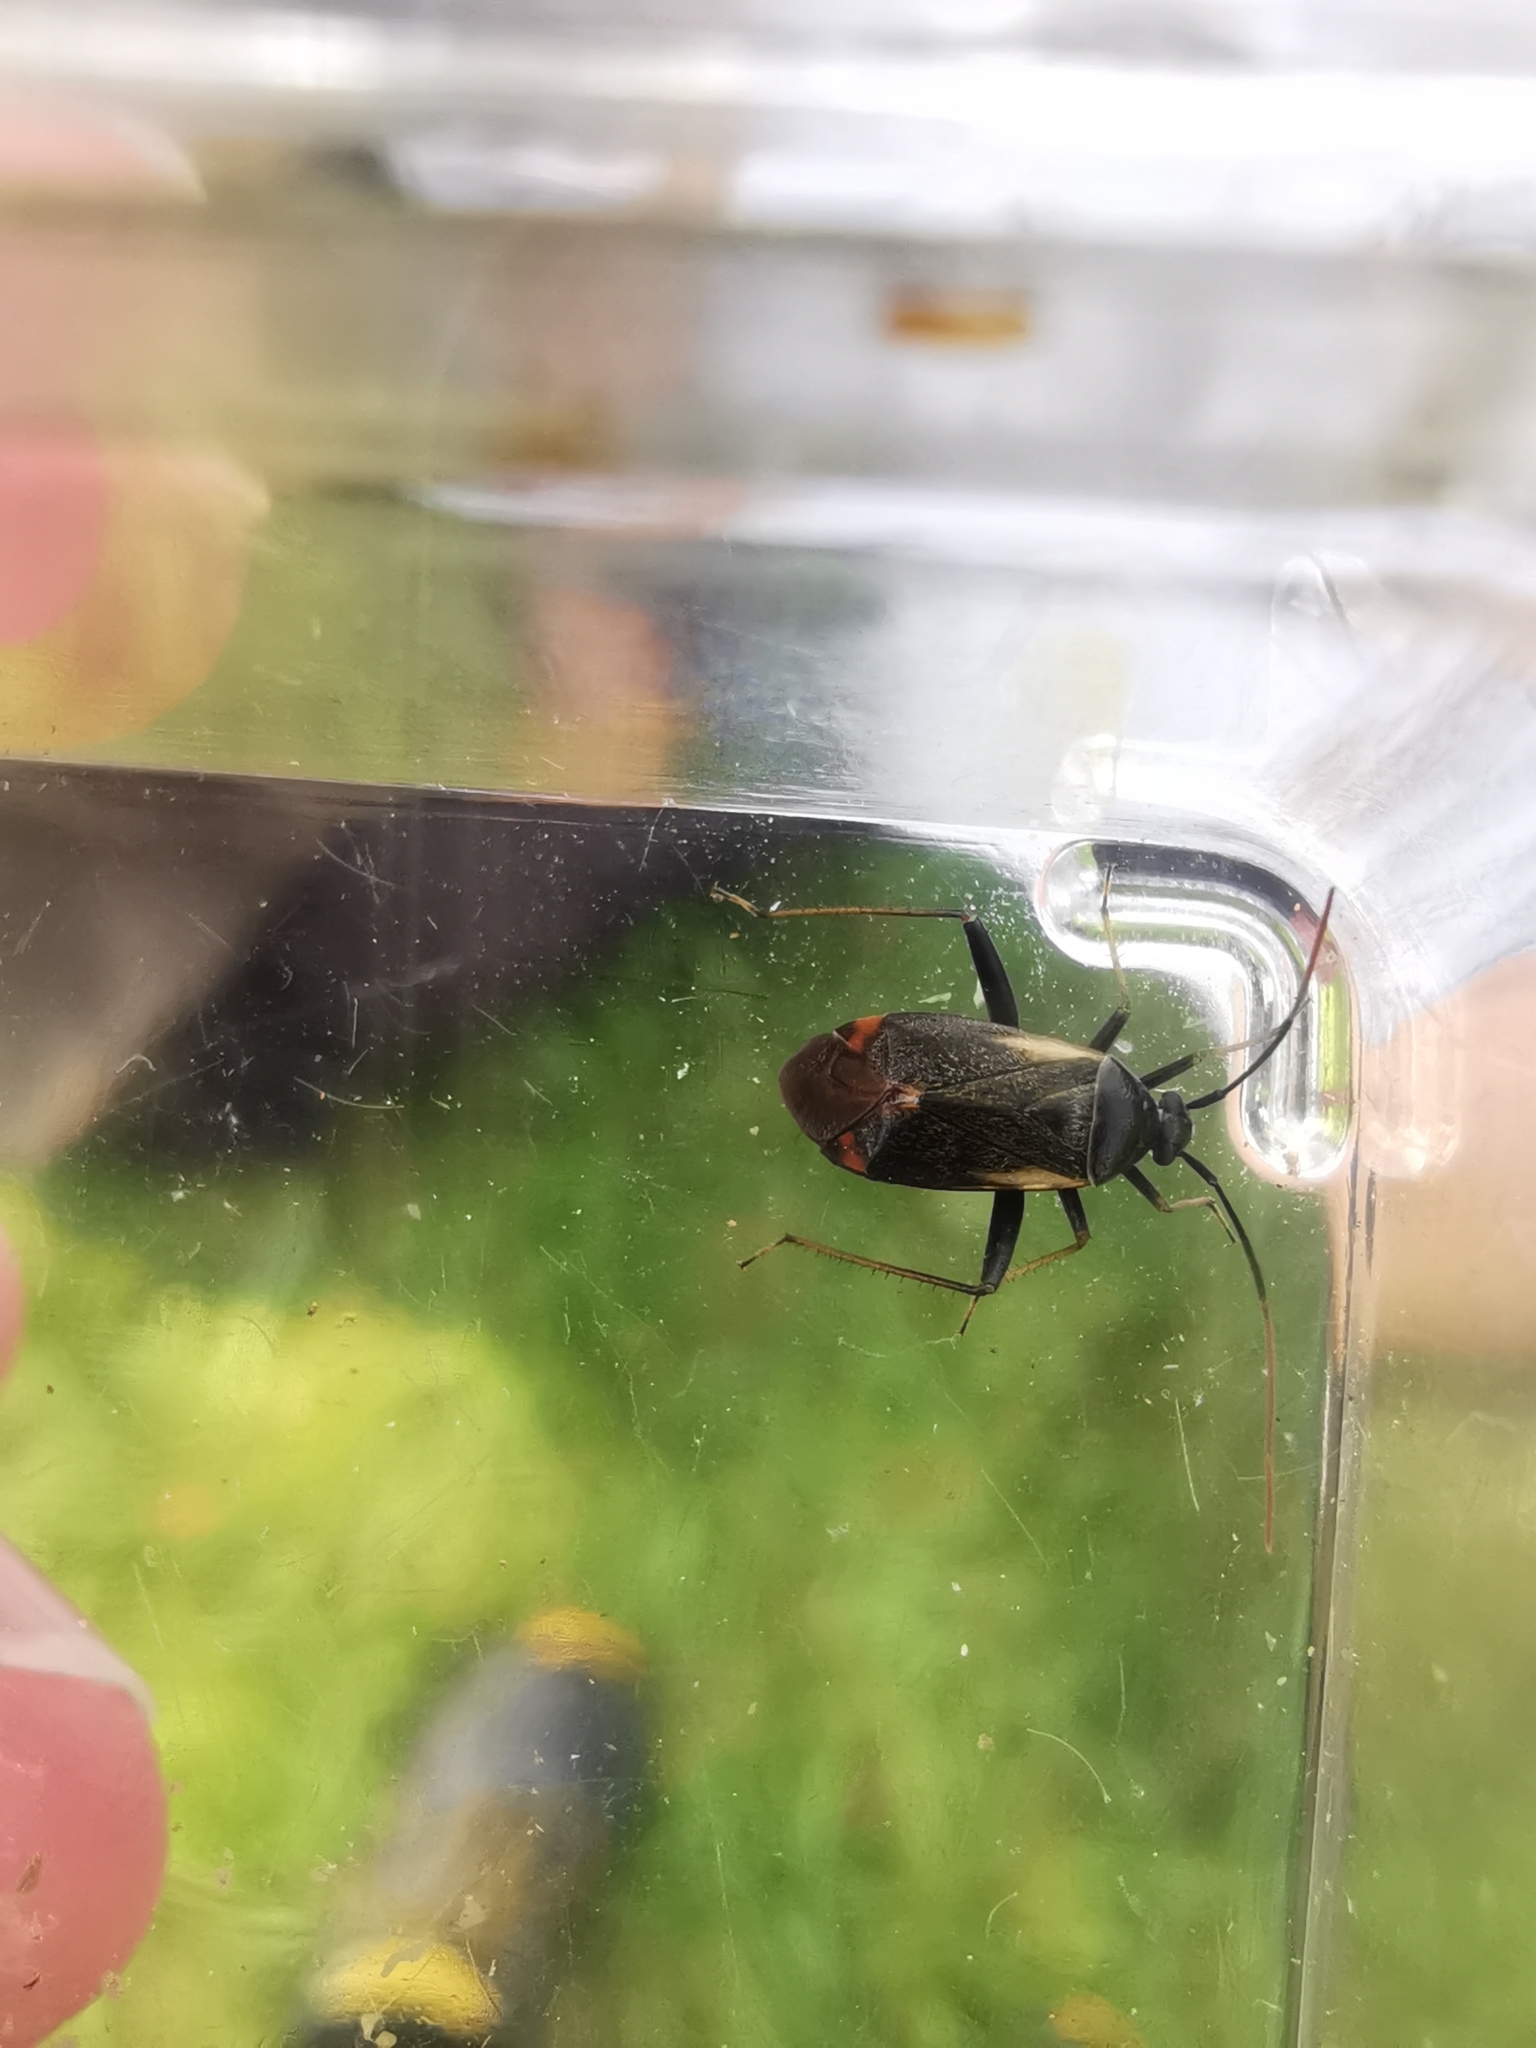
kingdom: Animalia
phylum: Arthropoda
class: Insecta
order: Hemiptera
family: Miridae
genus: Adelphocoris
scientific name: Adelphocoris seticornis
